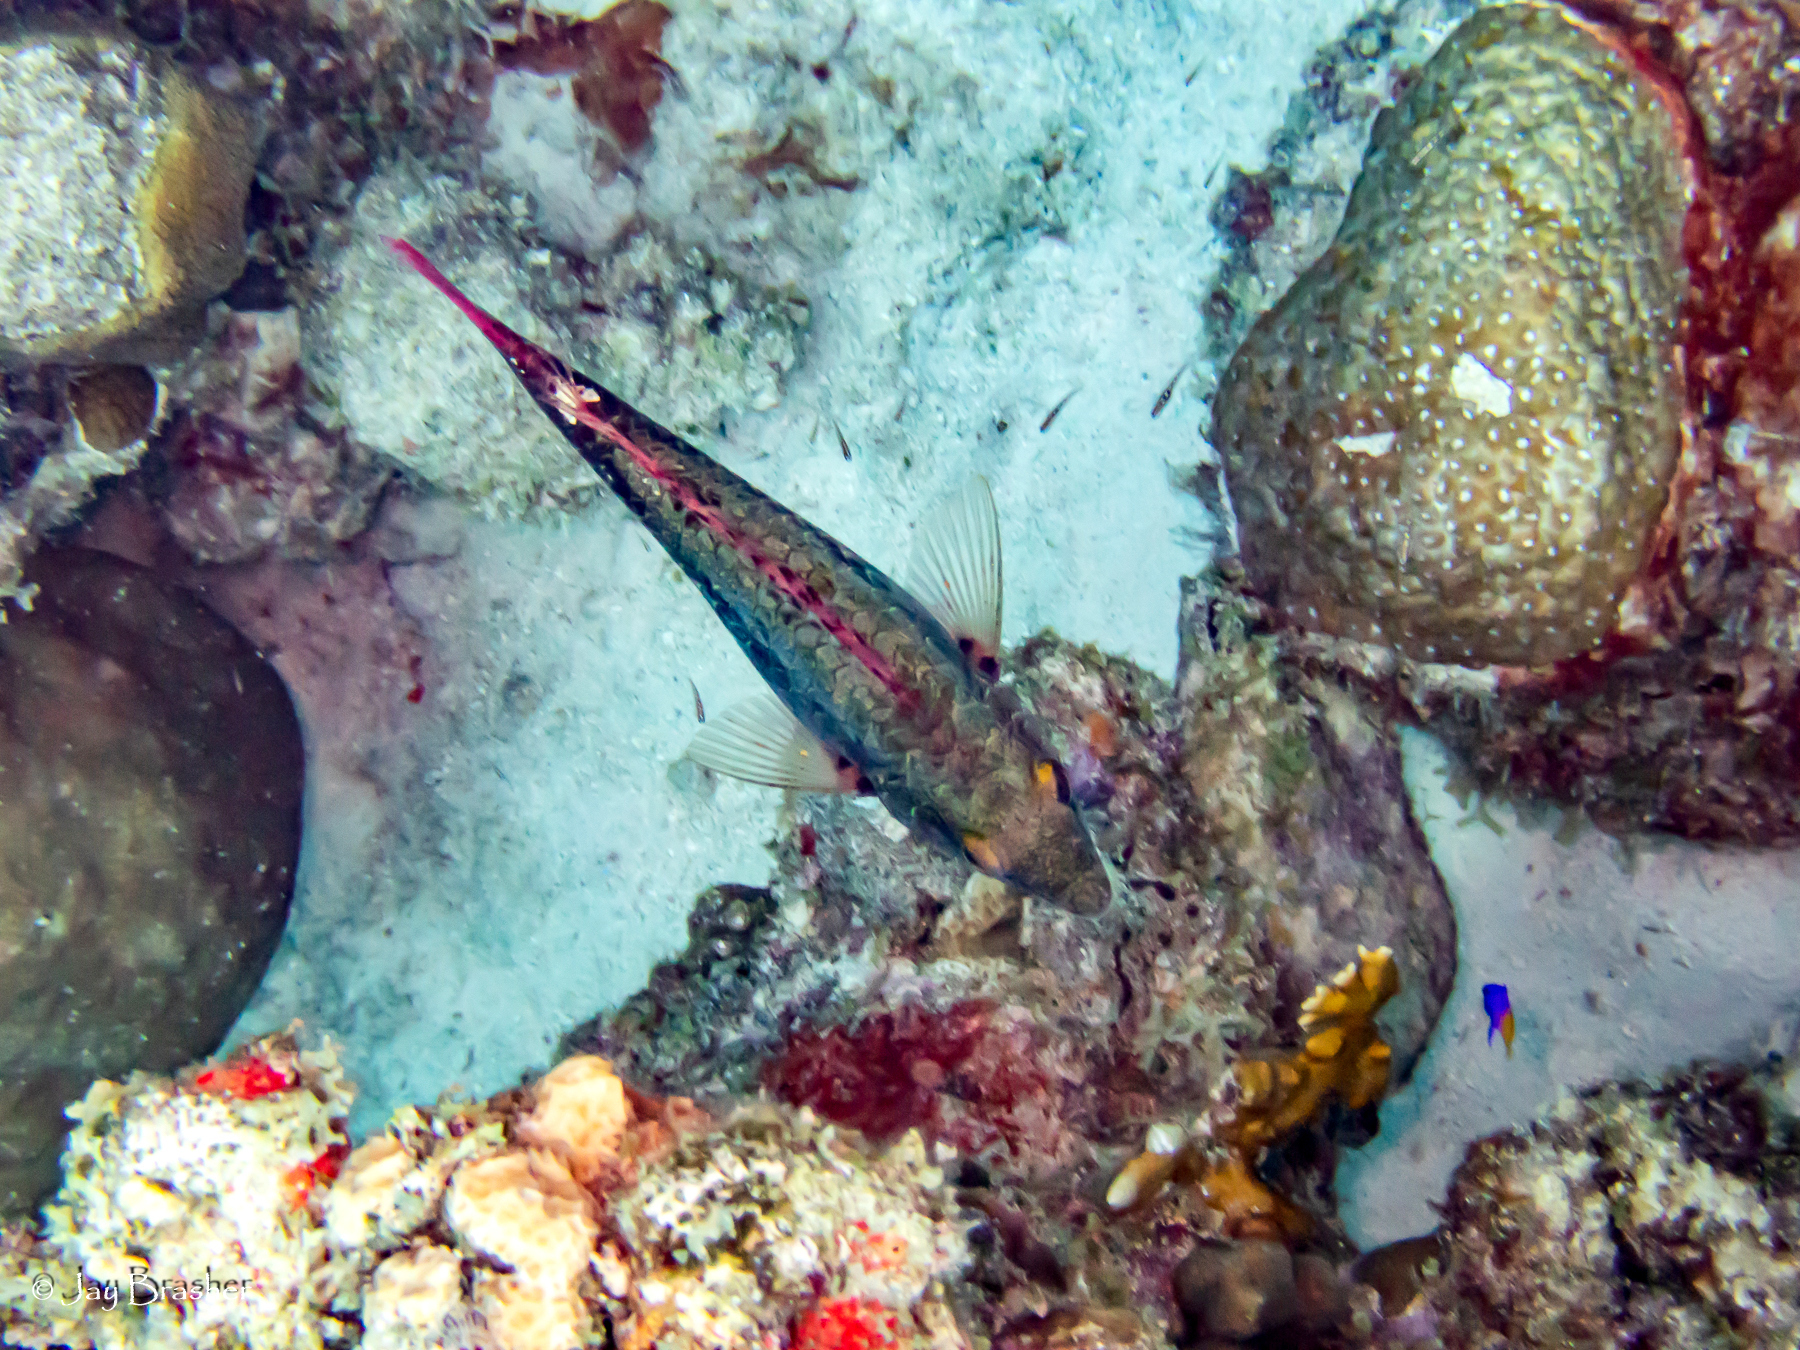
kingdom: Animalia
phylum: Chordata
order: Perciformes
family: Grammatidae
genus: Gramma
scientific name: Gramma loreto
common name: Fairy basslet
